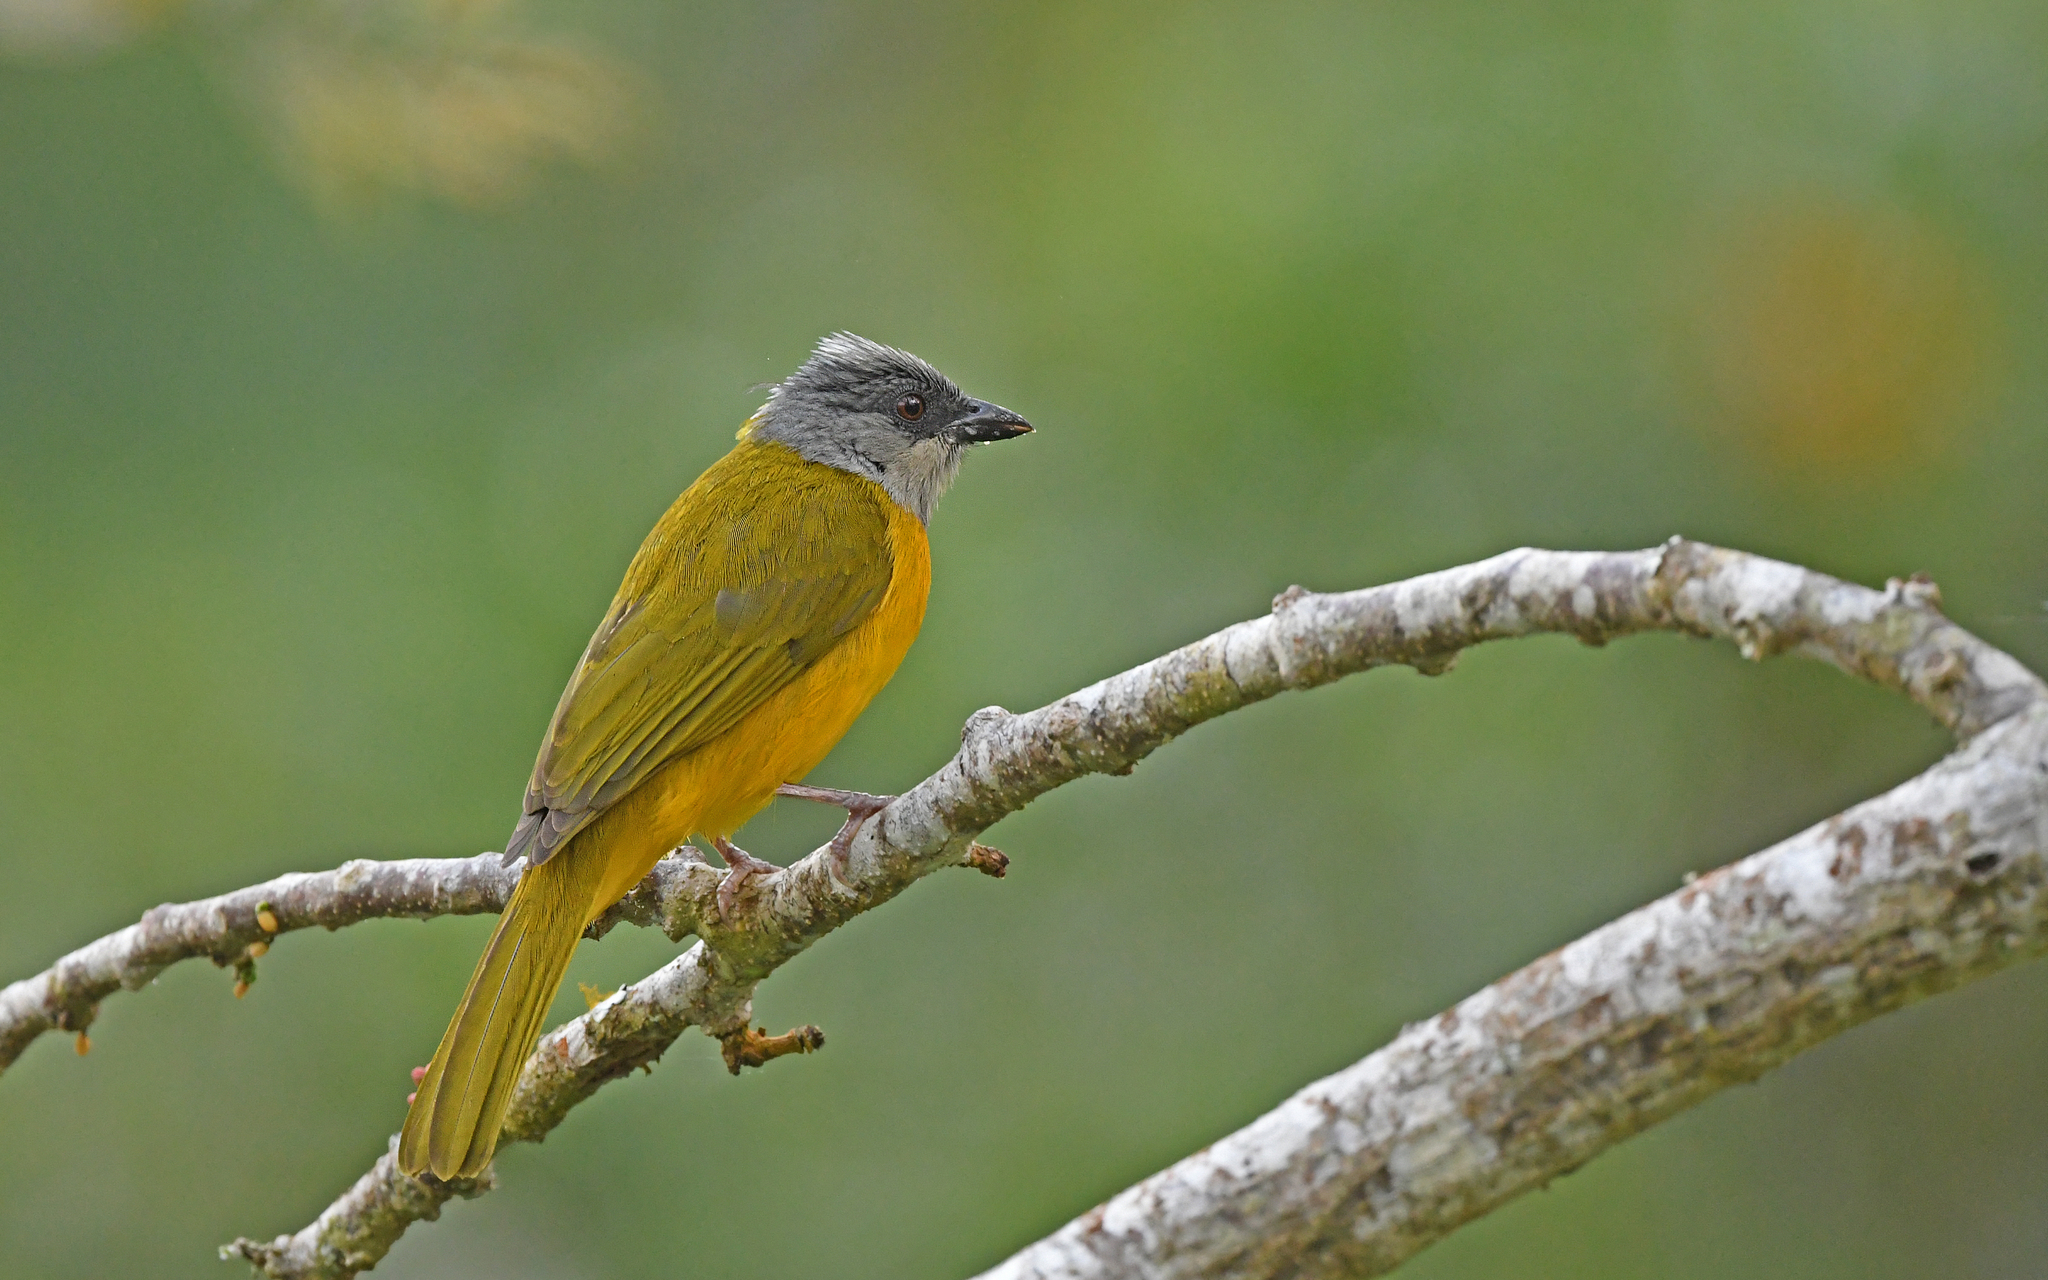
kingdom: Animalia
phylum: Chordata
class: Aves
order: Passeriformes
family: Thraupidae
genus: Eucometis
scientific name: Eucometis penicillata
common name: Grey-headed tanager
